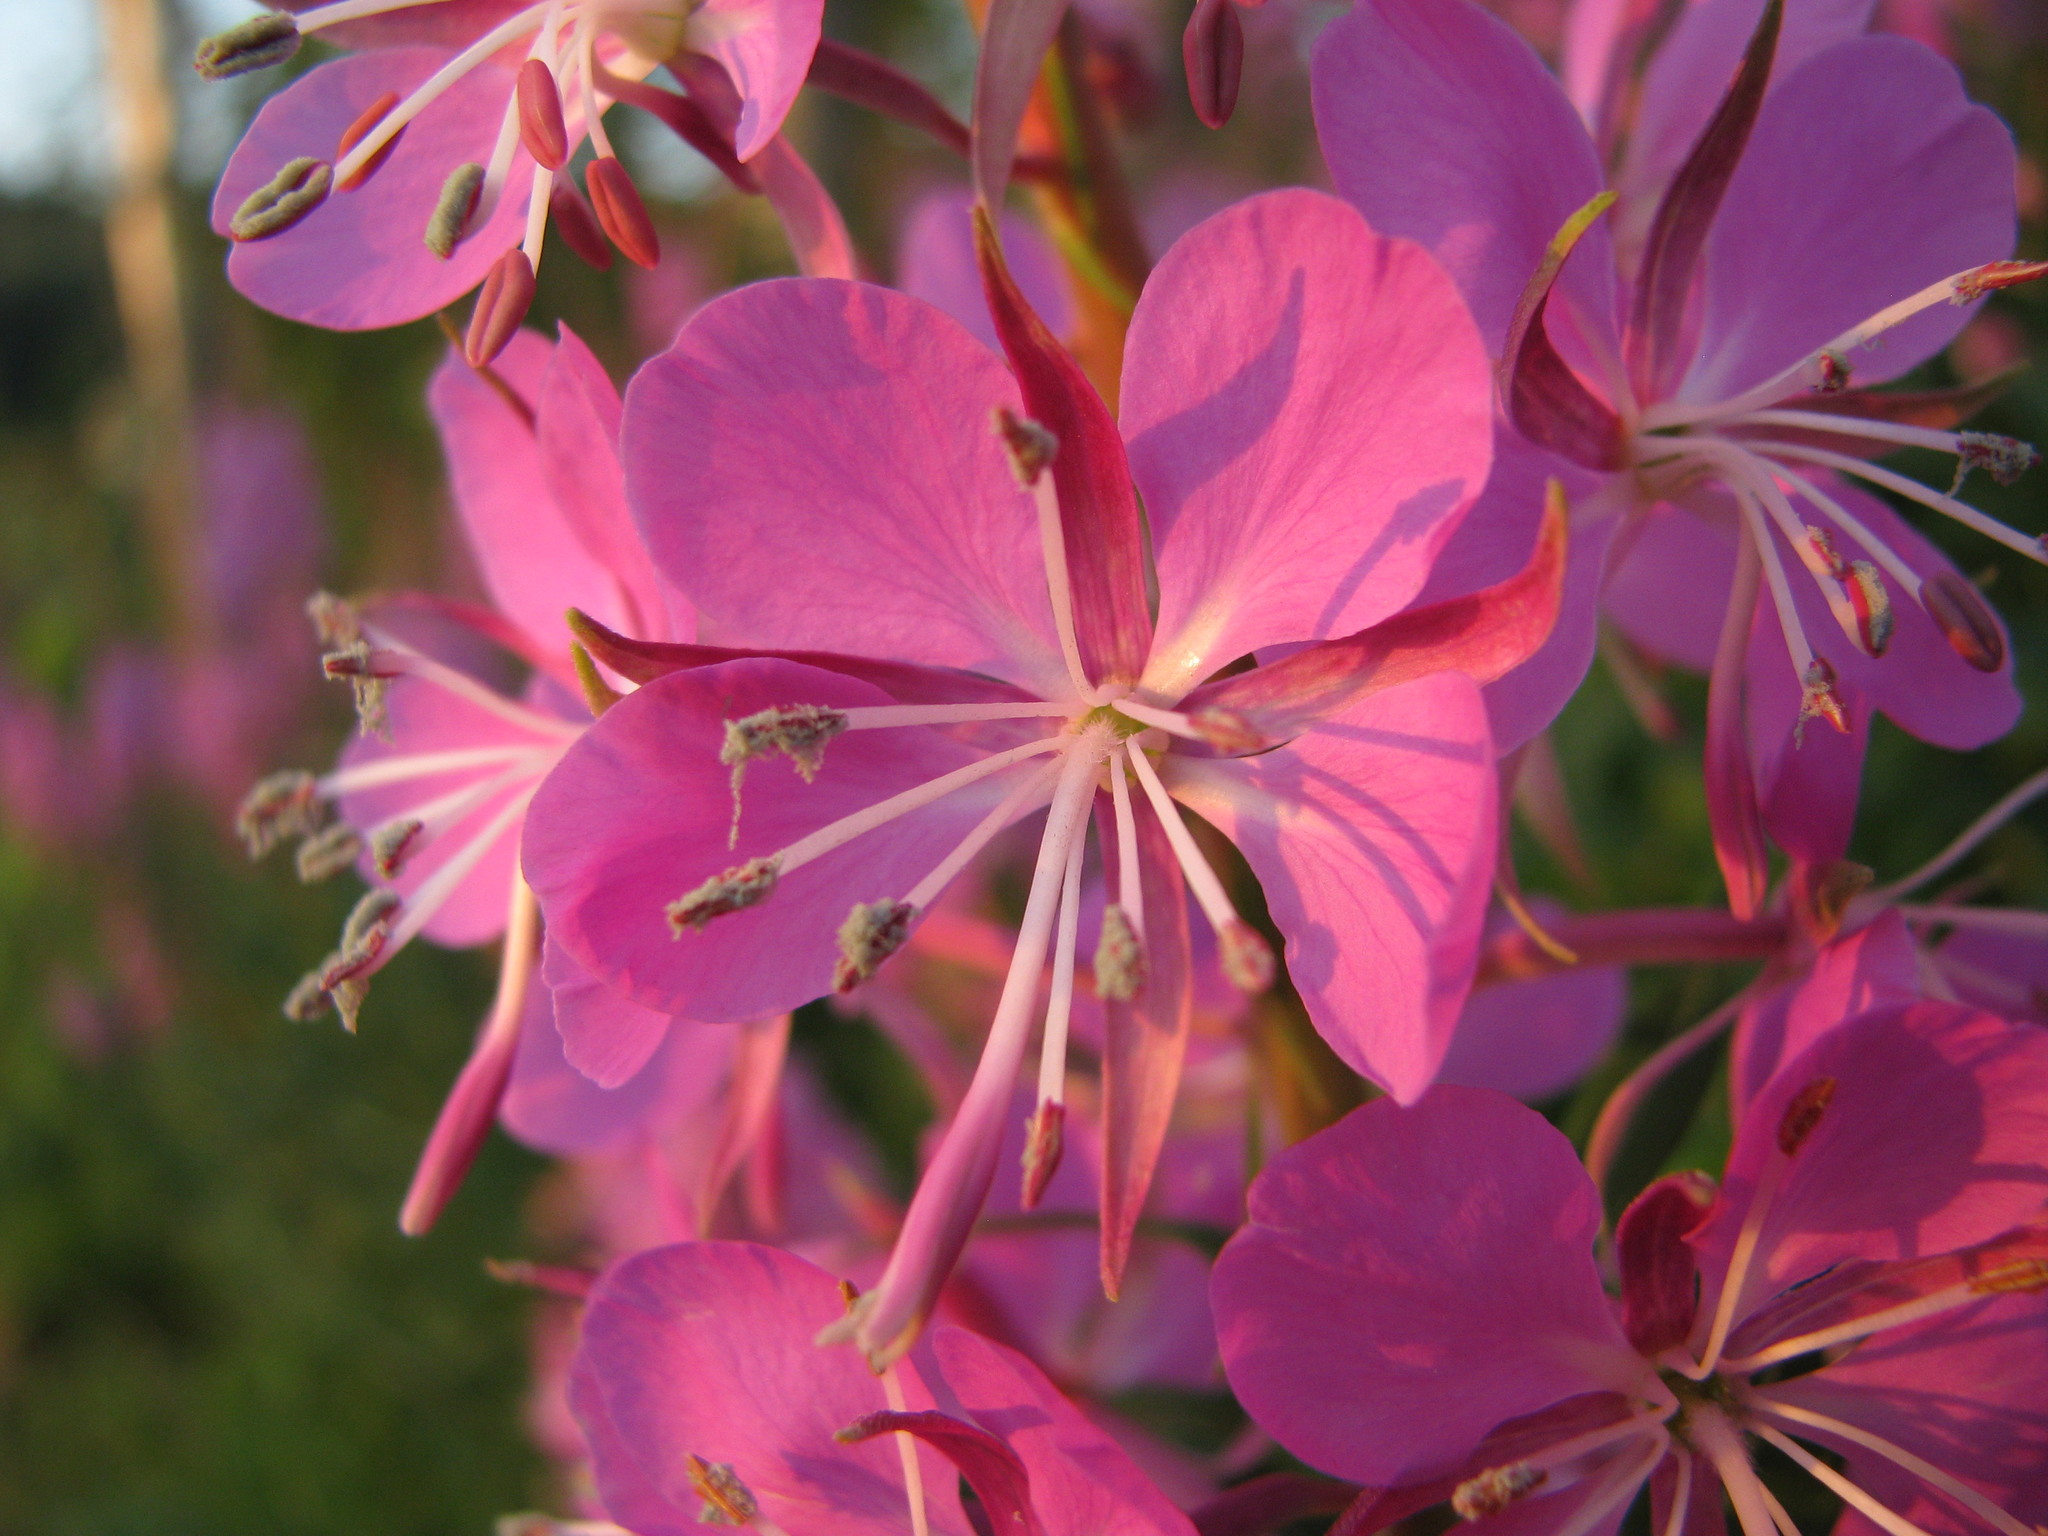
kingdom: Plantae
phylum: Tracheophyta
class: Magnoliopsida
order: Myrtales
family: Onagraceae
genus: Chamaenerion
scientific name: Chamaenerion angustifolium
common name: Fireweed
